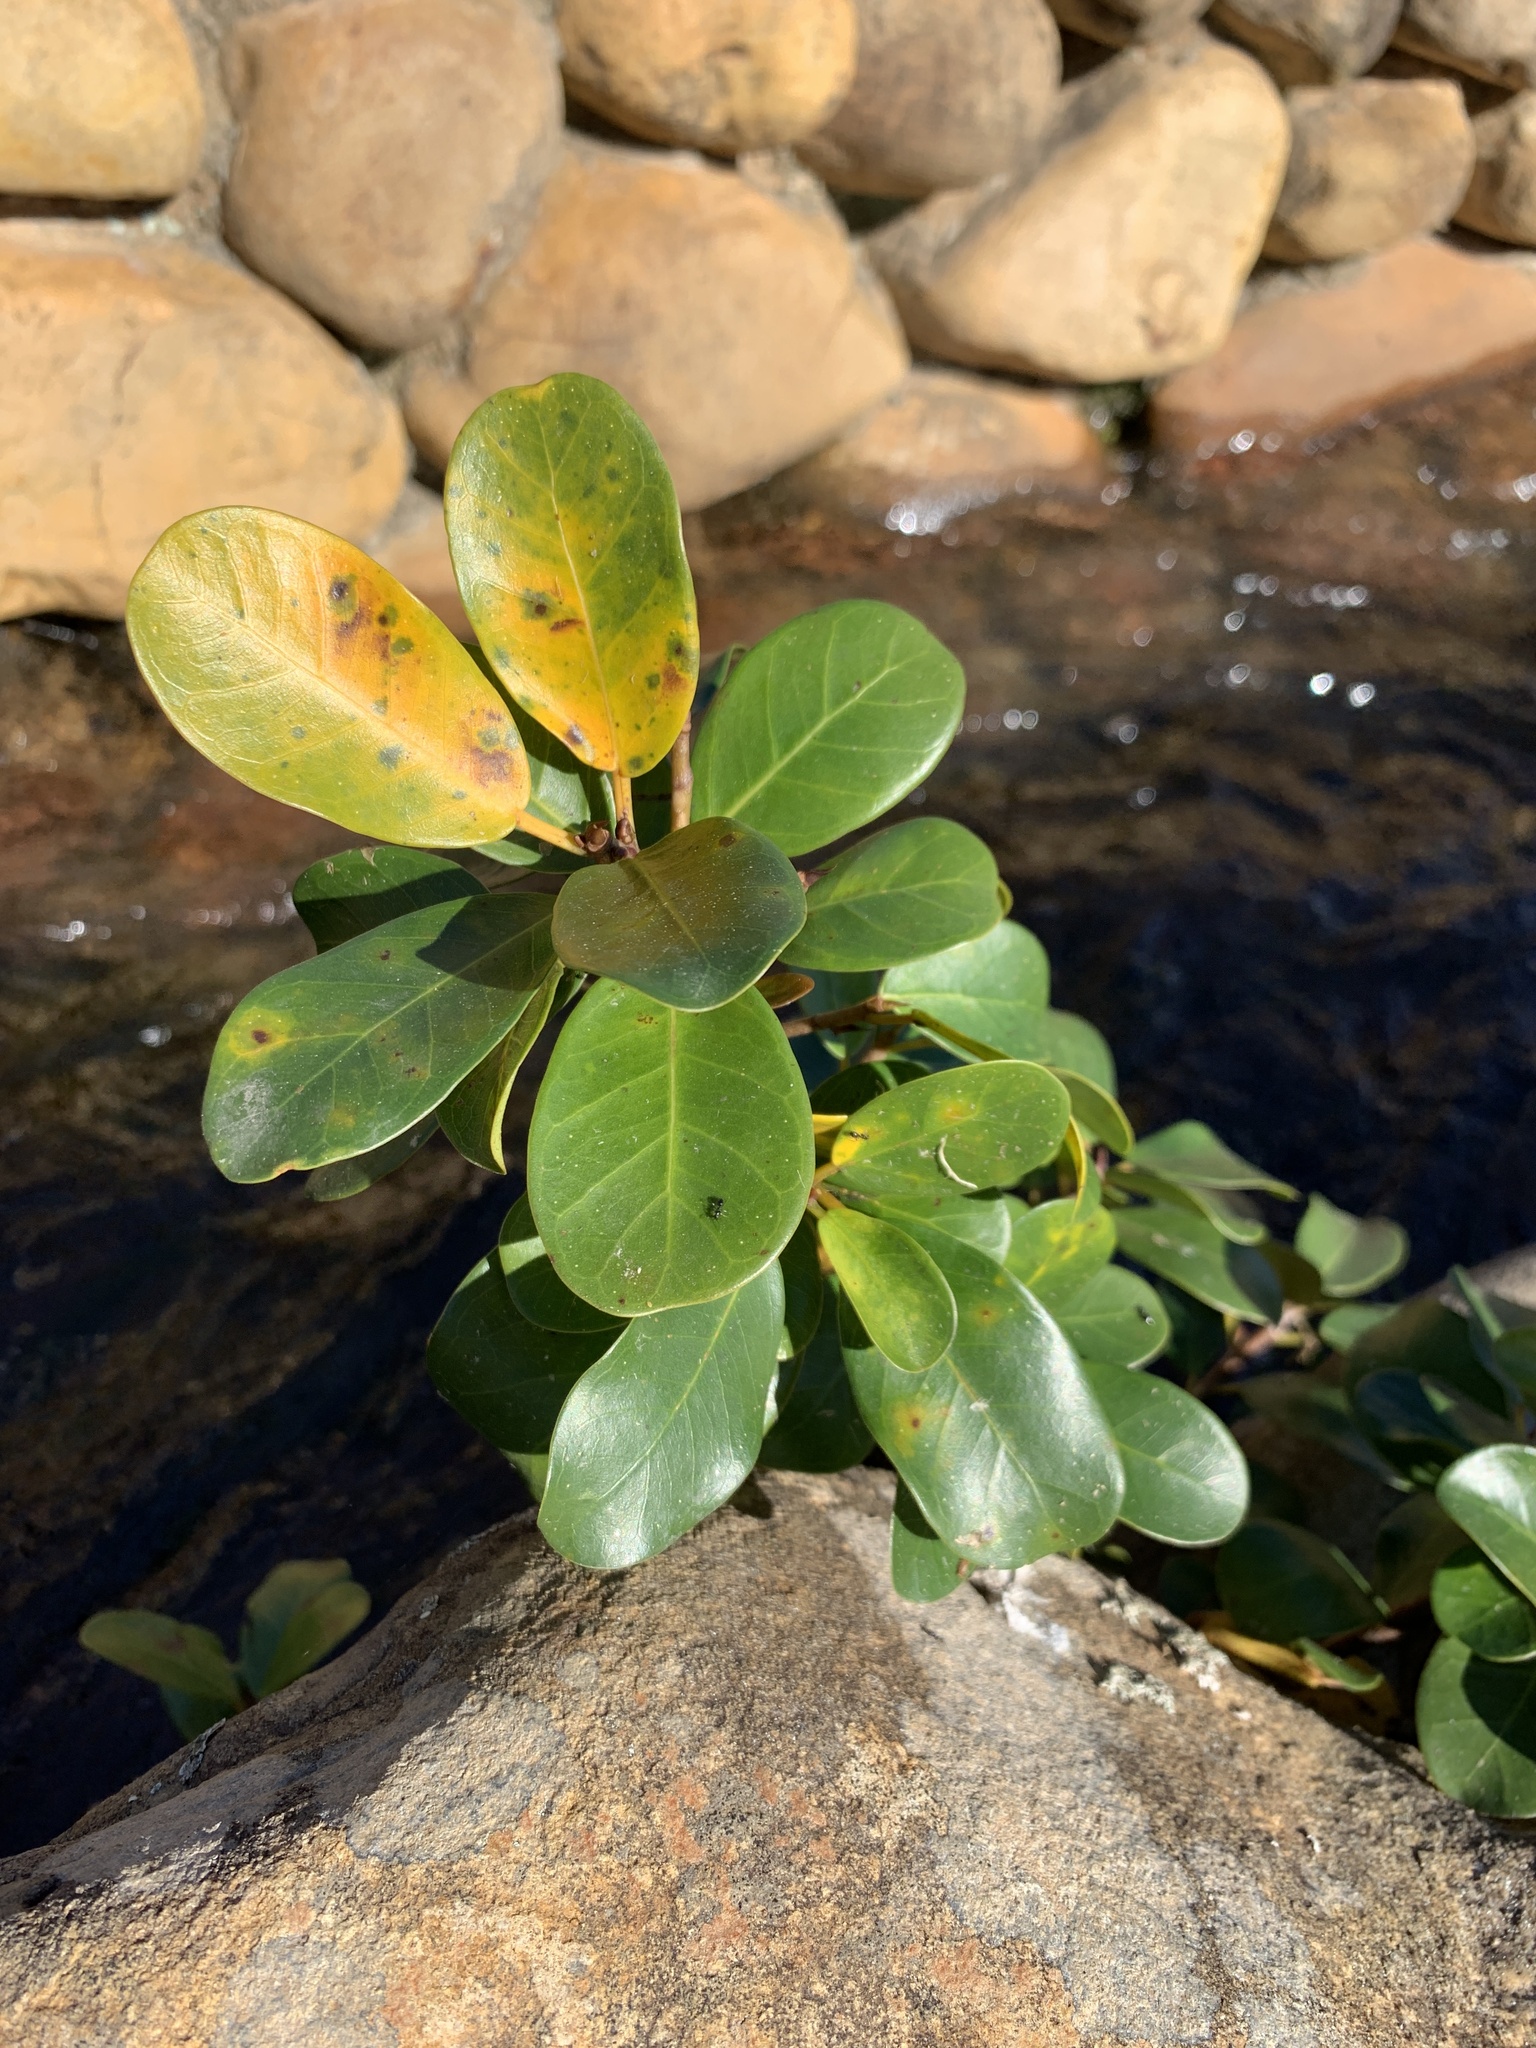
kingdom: Plantae
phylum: Tracheophyta
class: Magnoliopsida
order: Rosales
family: Moraceae
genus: Ficus
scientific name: Ficus thonningii
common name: Fig
